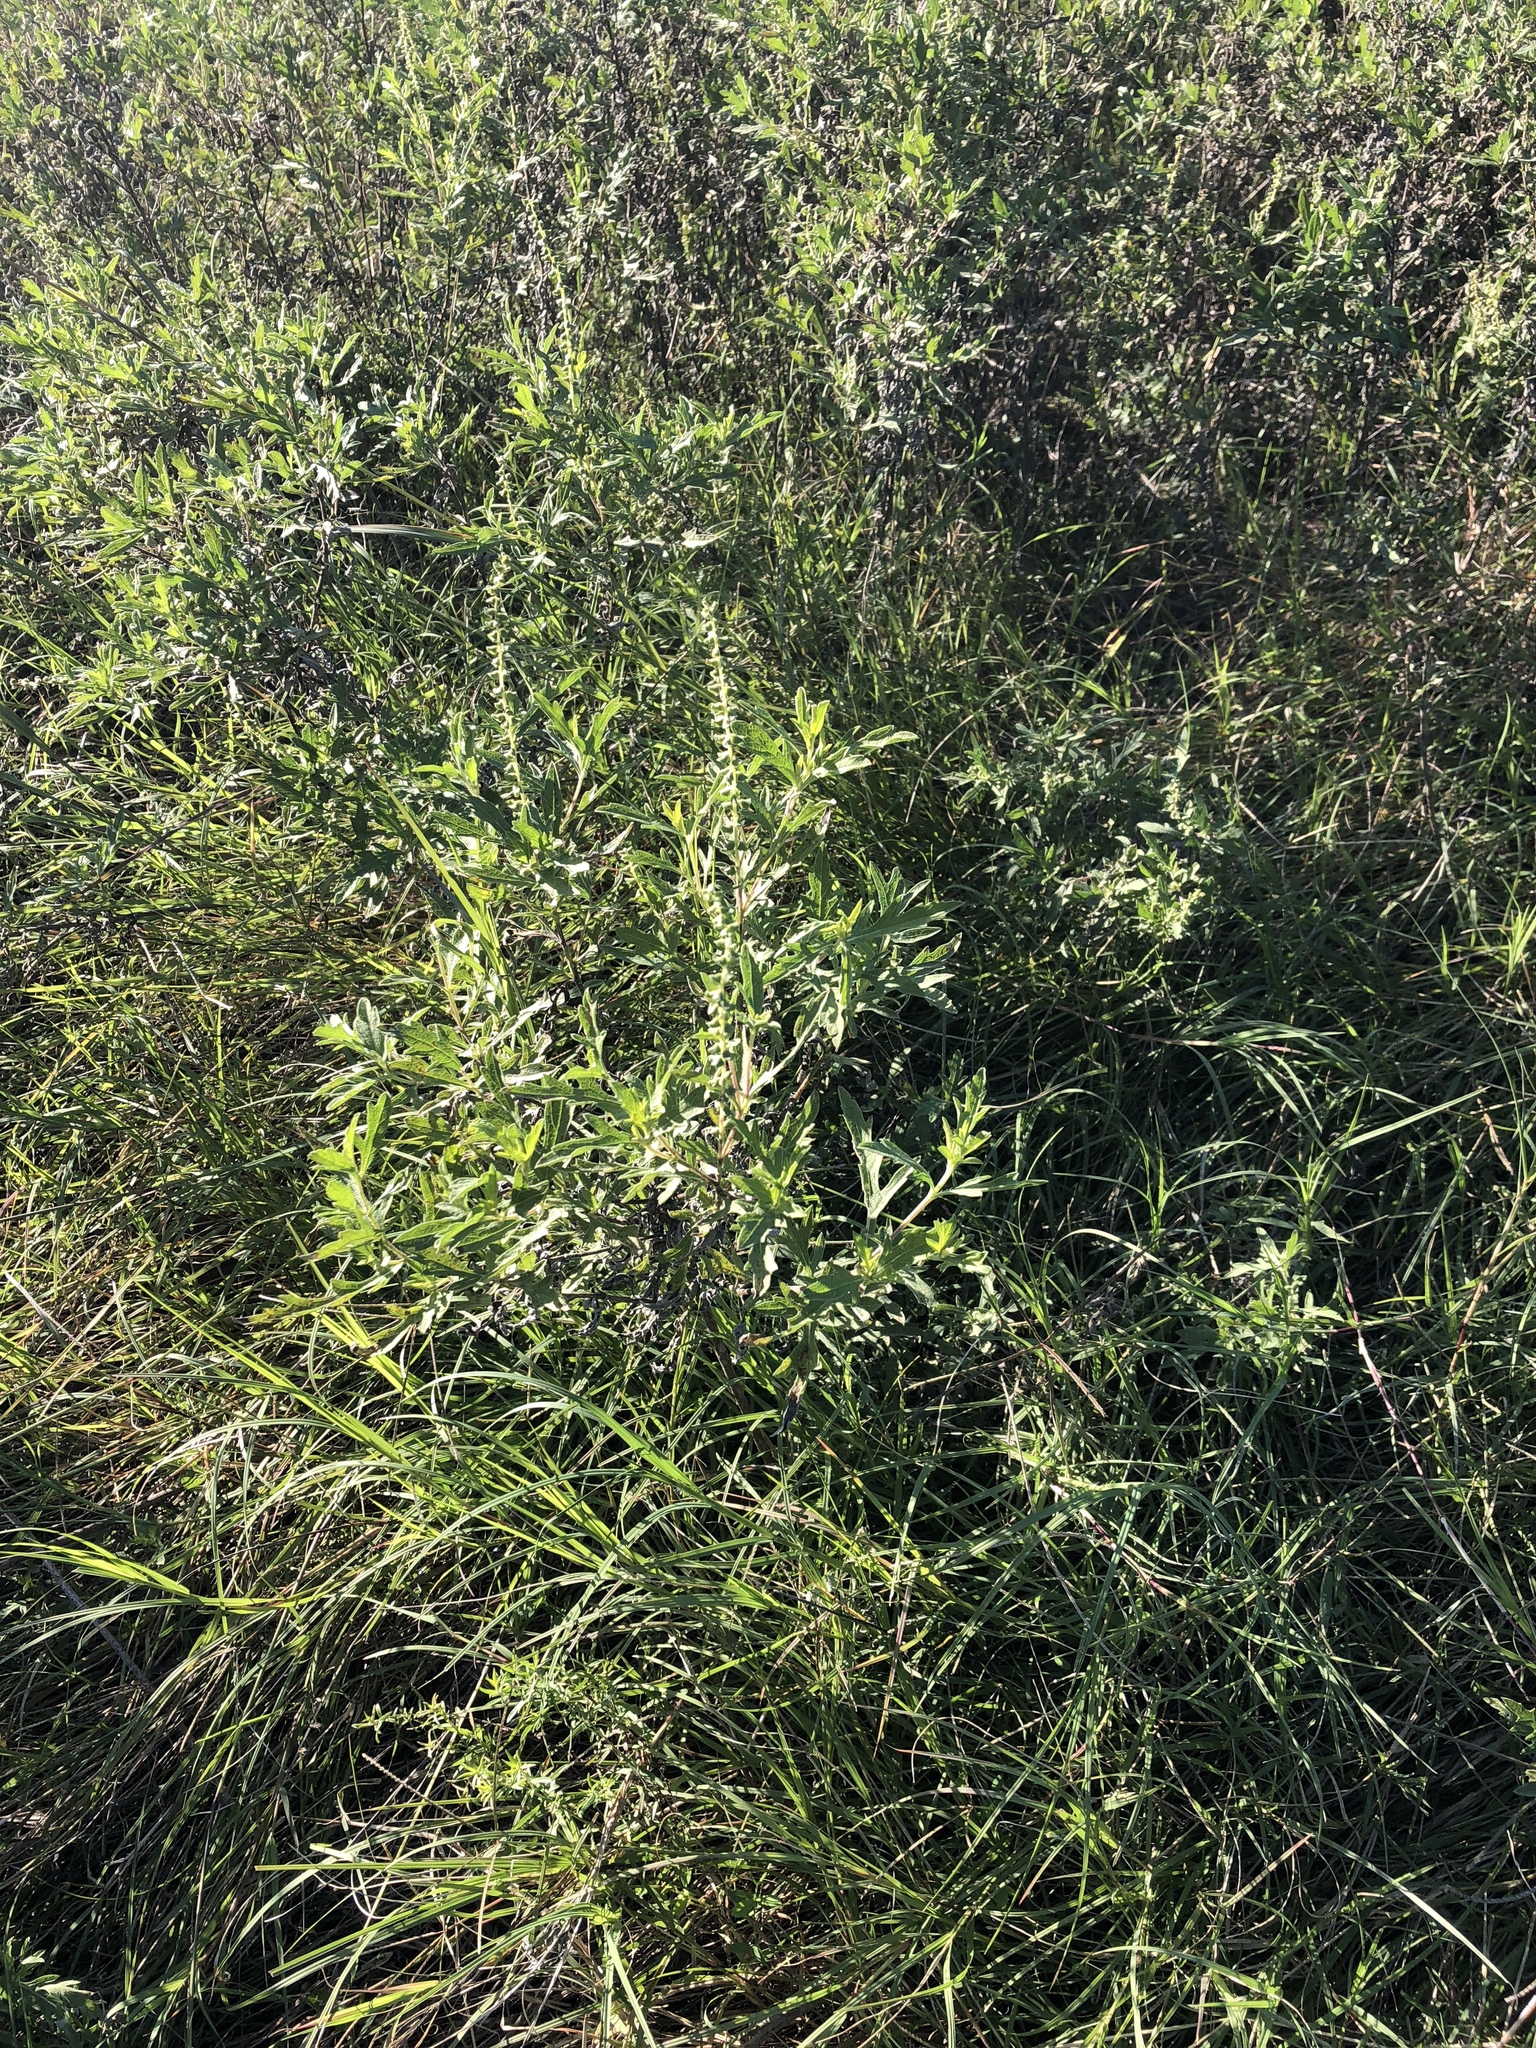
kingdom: Plantae
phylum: Tracheophyta
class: Magnoliopsida
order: Asterales
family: Asteraceae
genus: Ambrosia
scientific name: Ambrosia psilostachya
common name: Perennial ragweed
